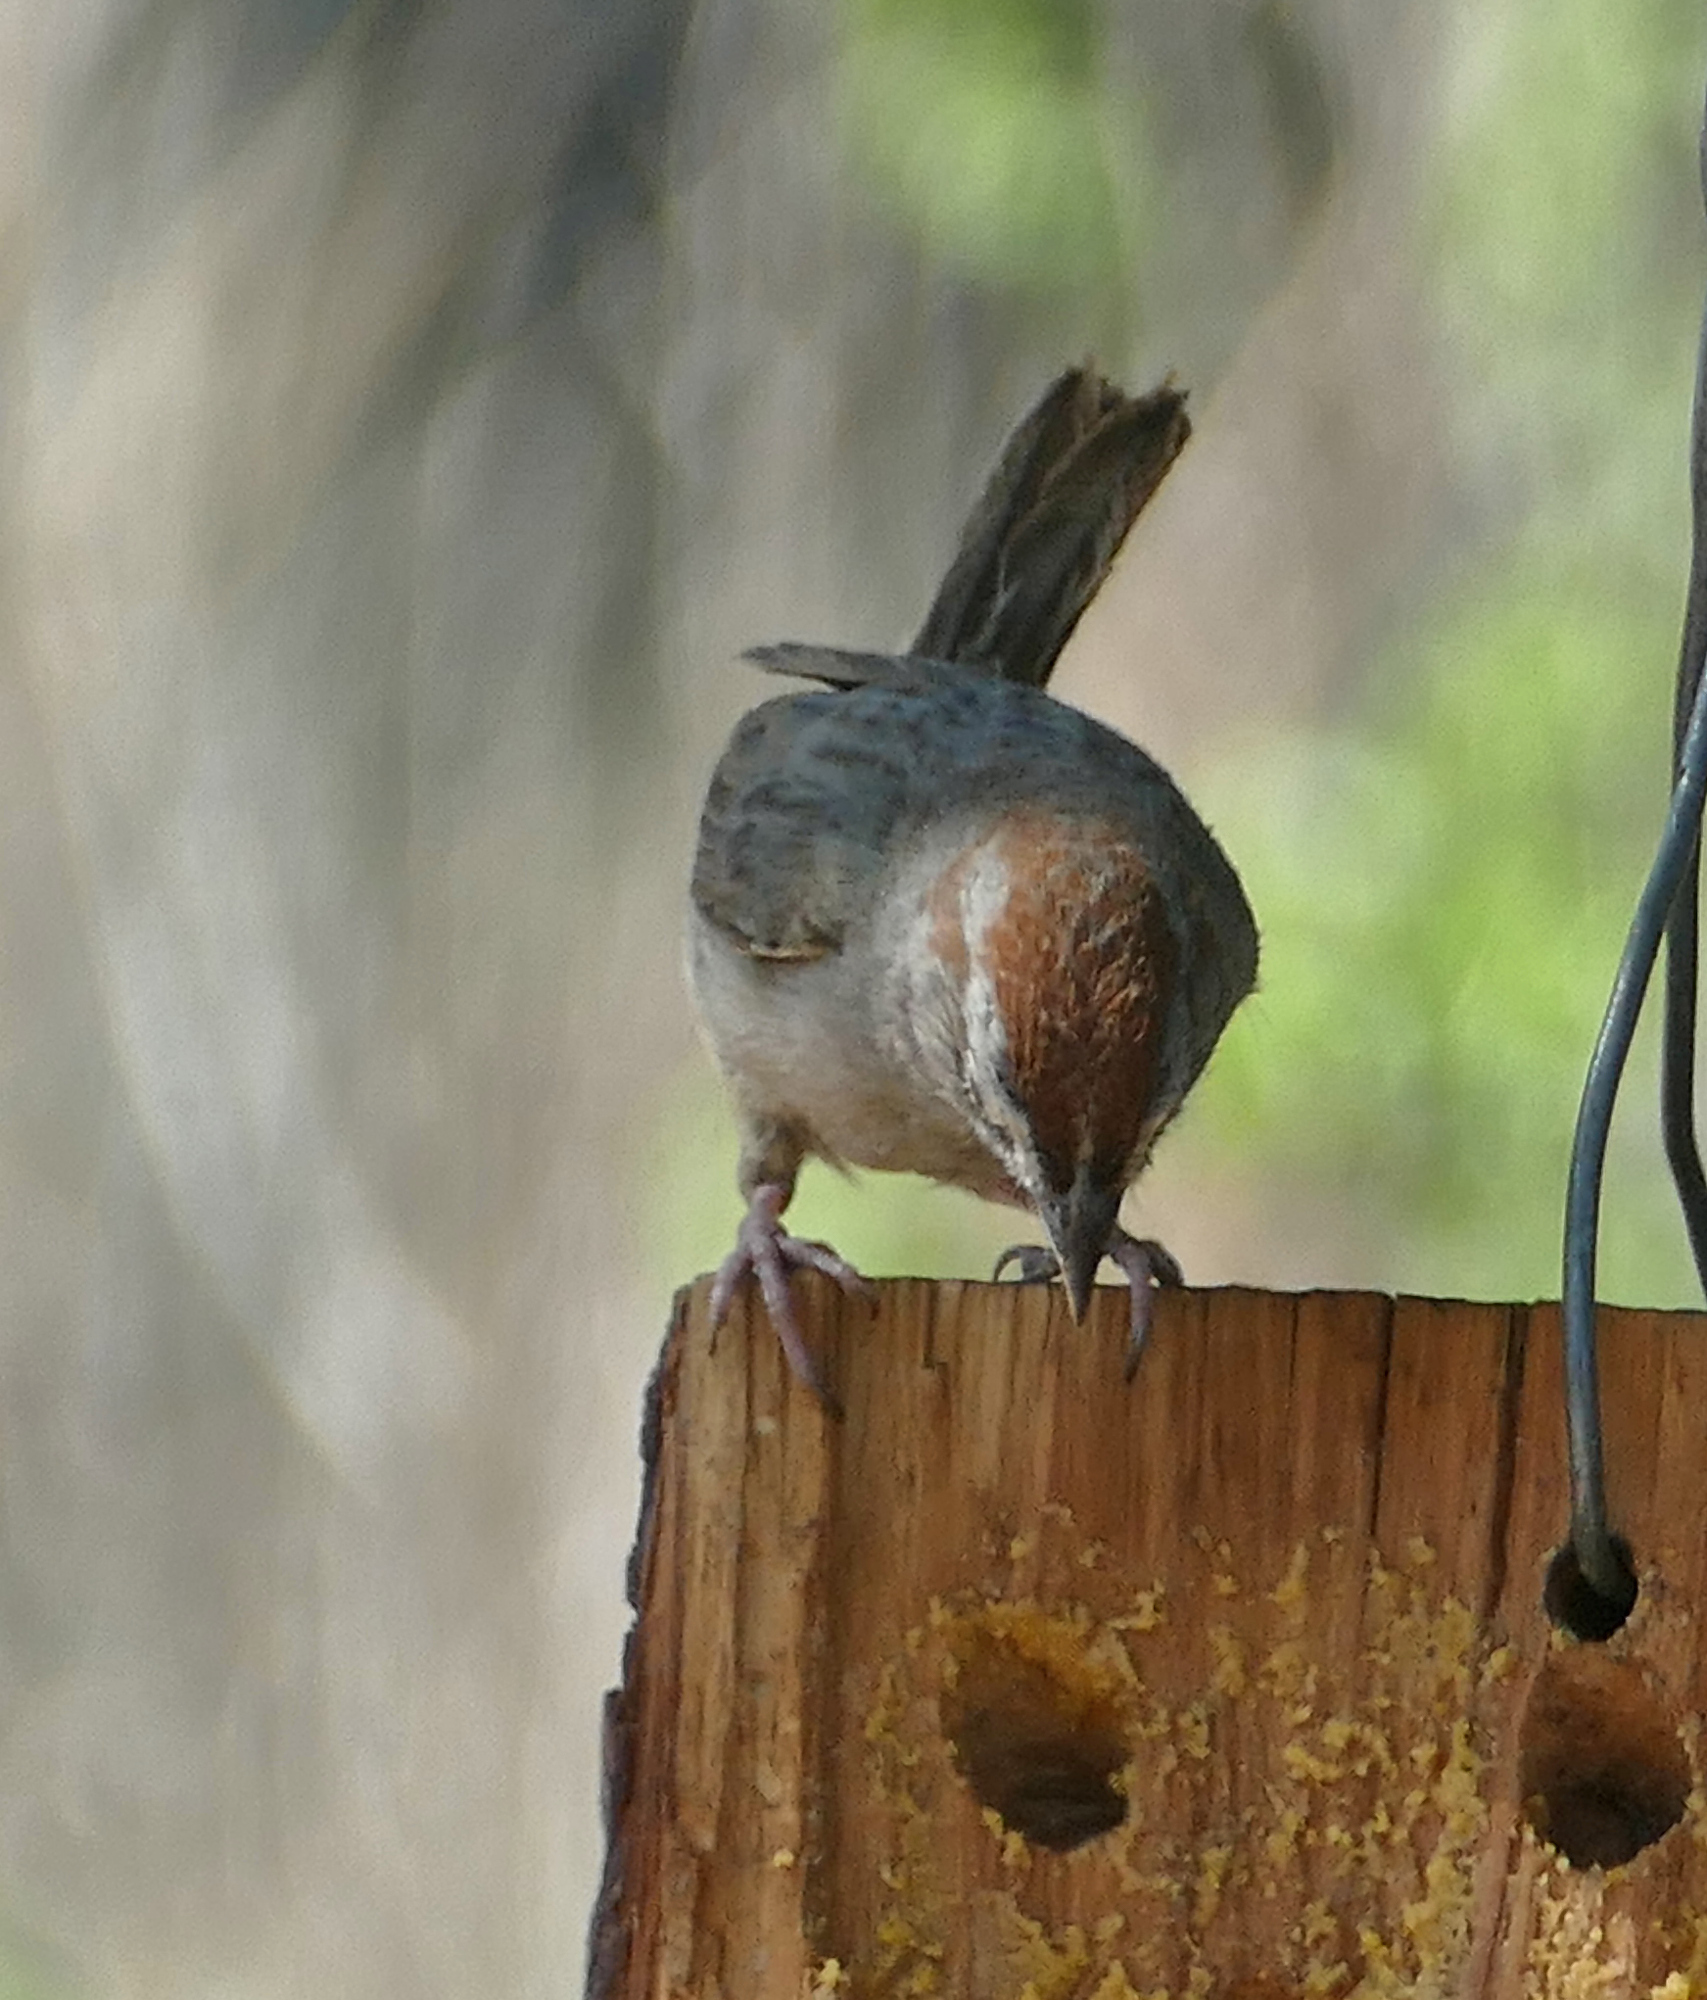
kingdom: Animalia
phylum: Chordata
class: Aves
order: Passeriformes
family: Passerellidae
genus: Aimophila
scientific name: Aimophila ruficeps
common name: Rufous-crowned sparrow
